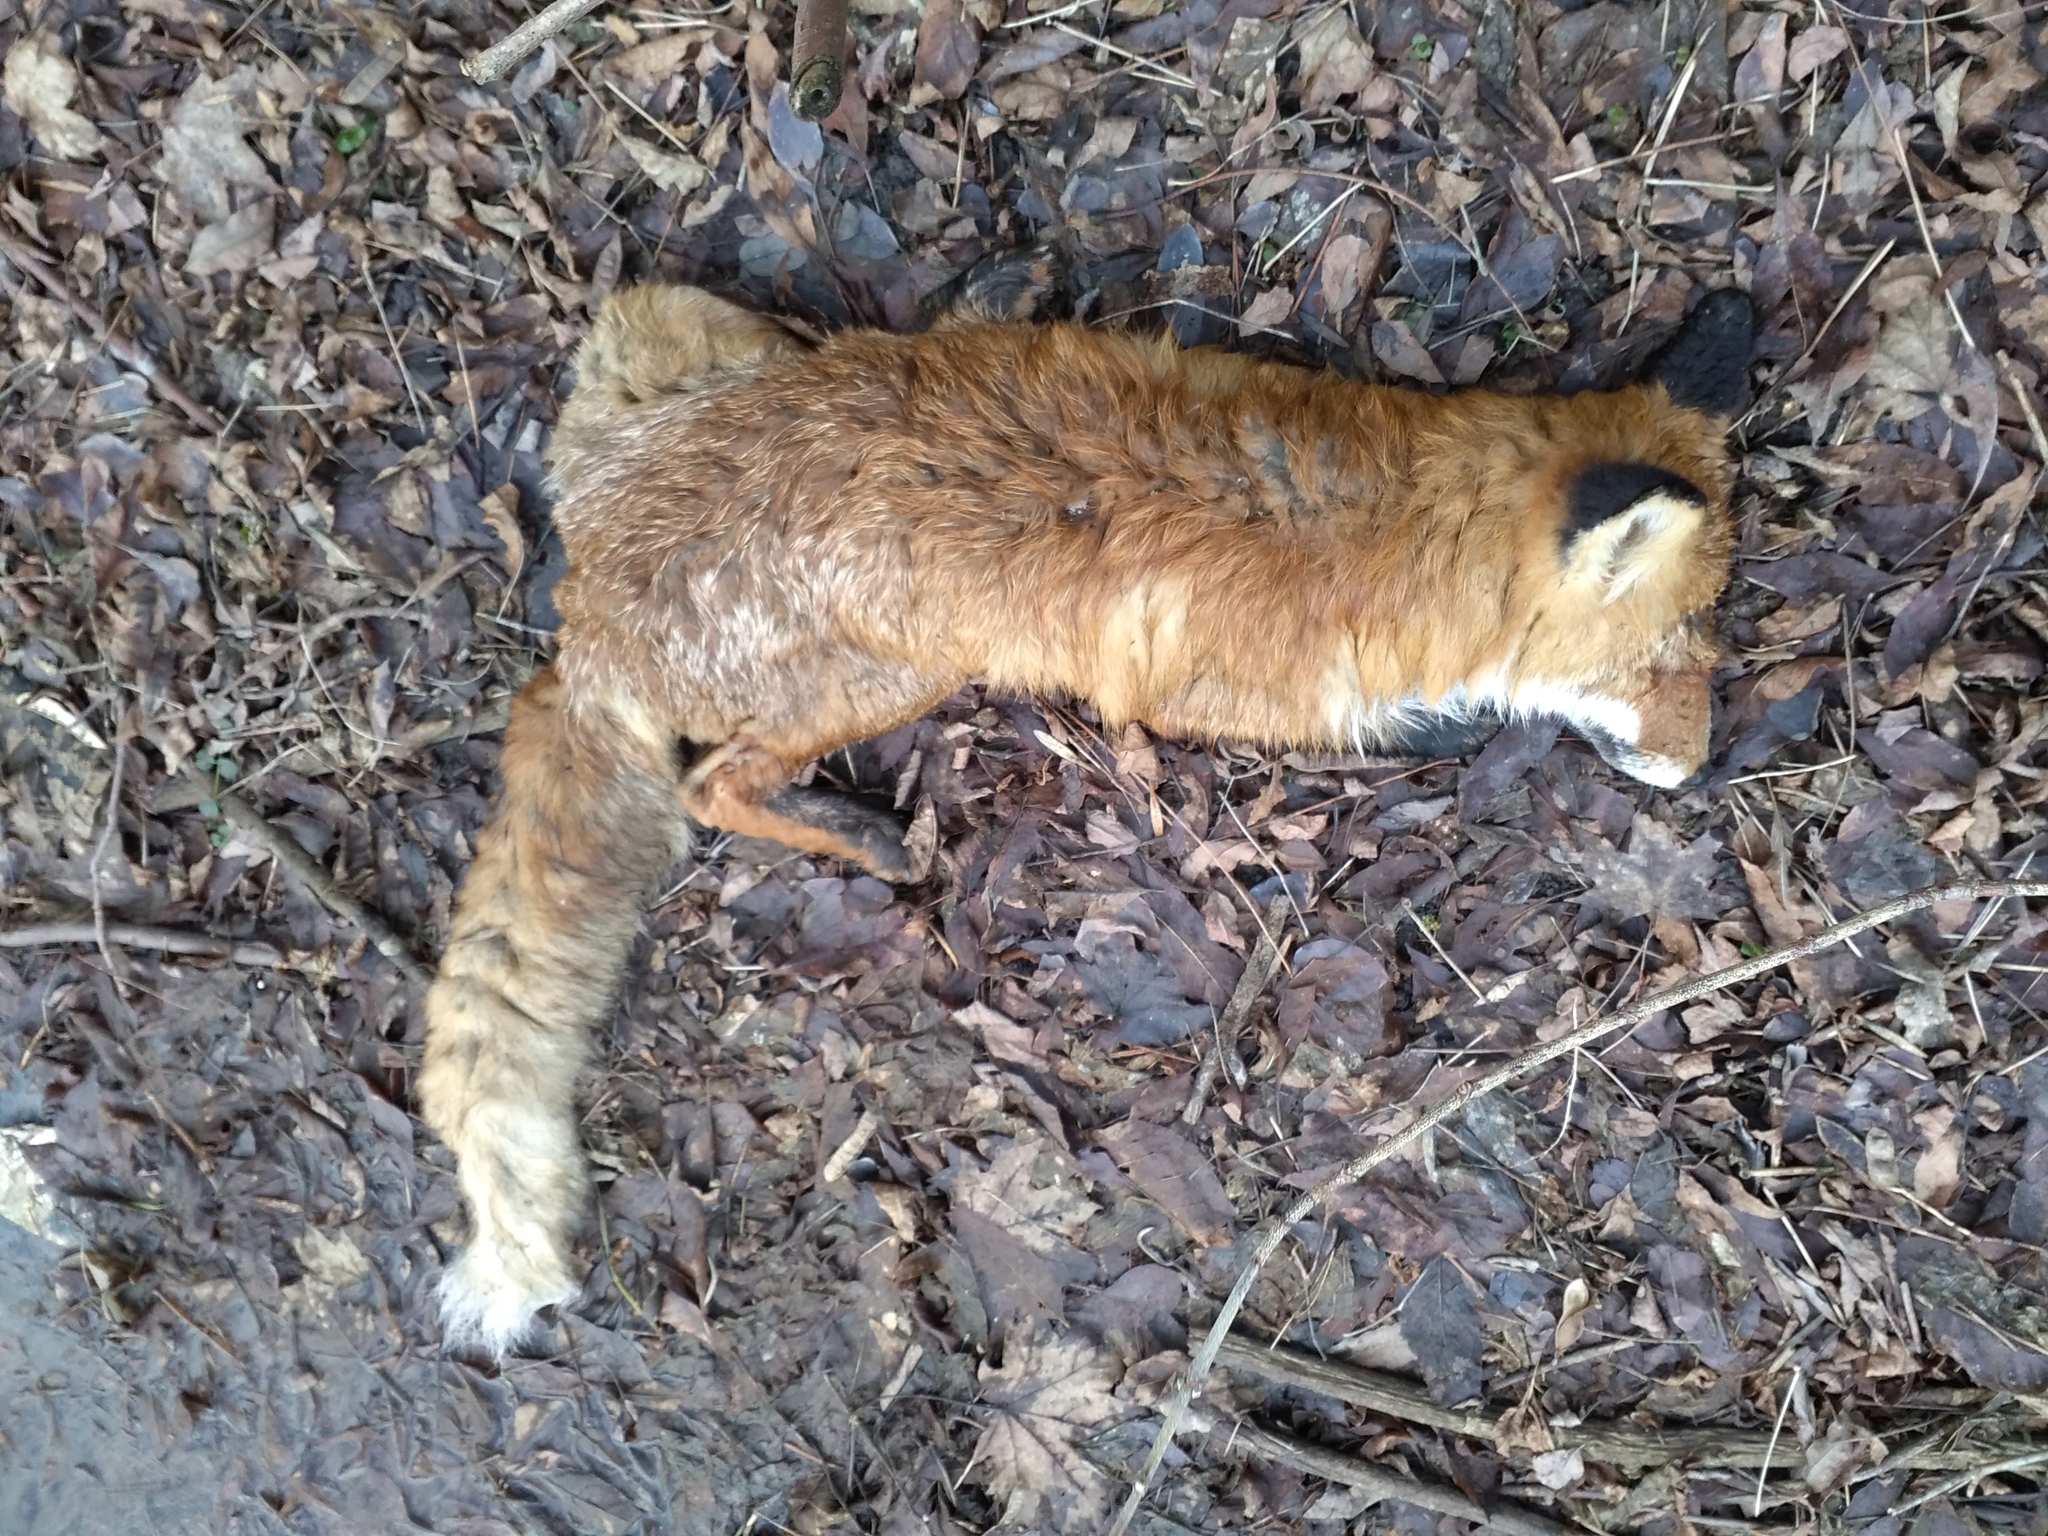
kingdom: Animalia
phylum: Chordata
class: Mammalia
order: Carnivora
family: Canidae
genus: Vulpes
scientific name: Vulpes vulpes
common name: Red fox
